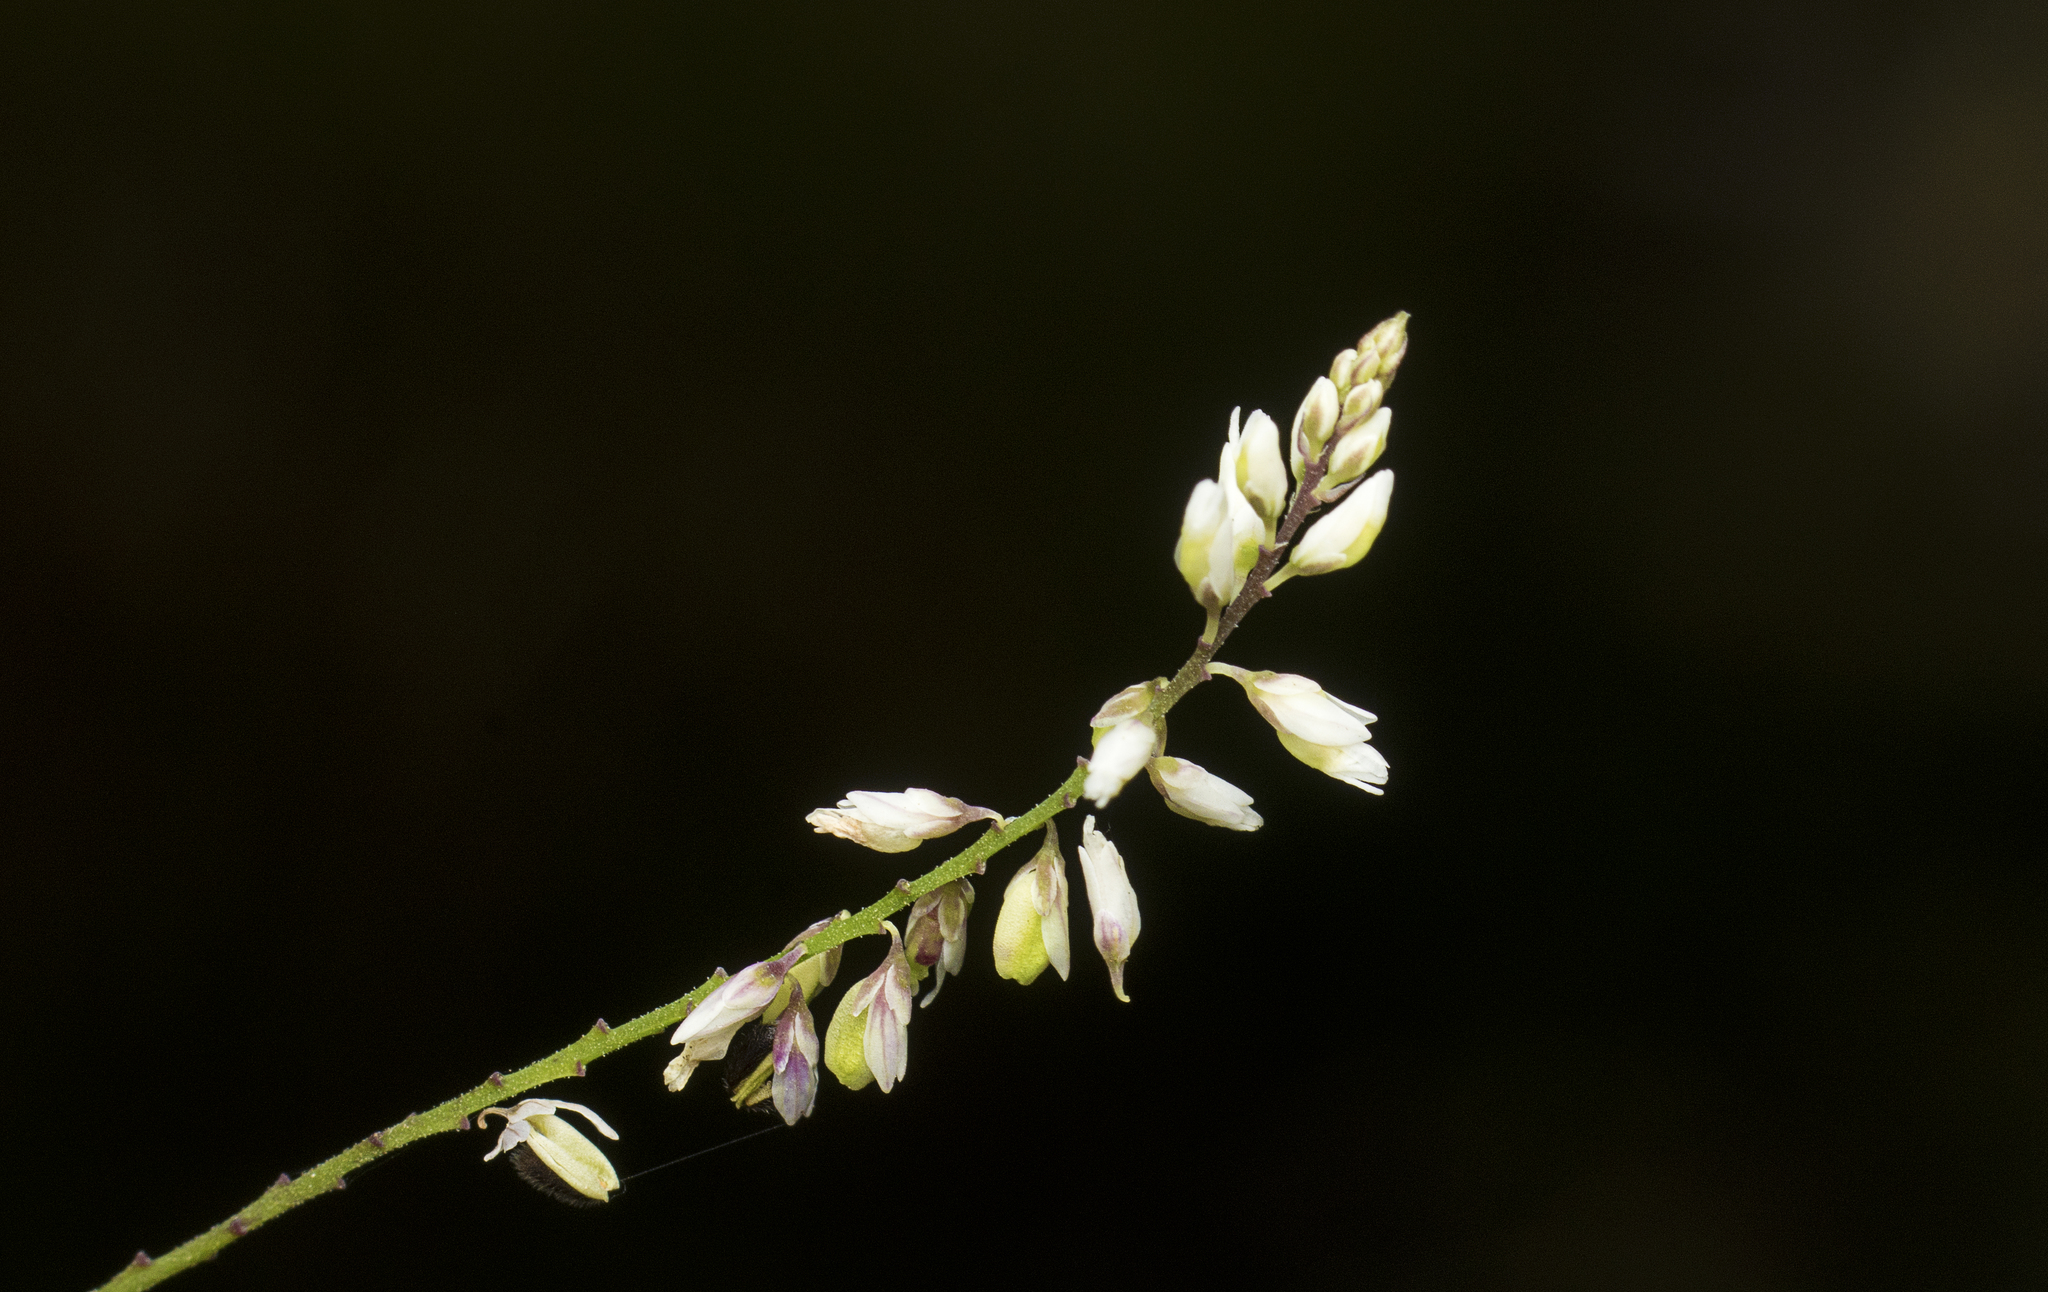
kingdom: Plantae
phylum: Tracheophyta
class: Magnoliopsida
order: Fabales
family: Polygalaceae
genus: Polygala
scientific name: Polygala paniculata
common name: Orosne
